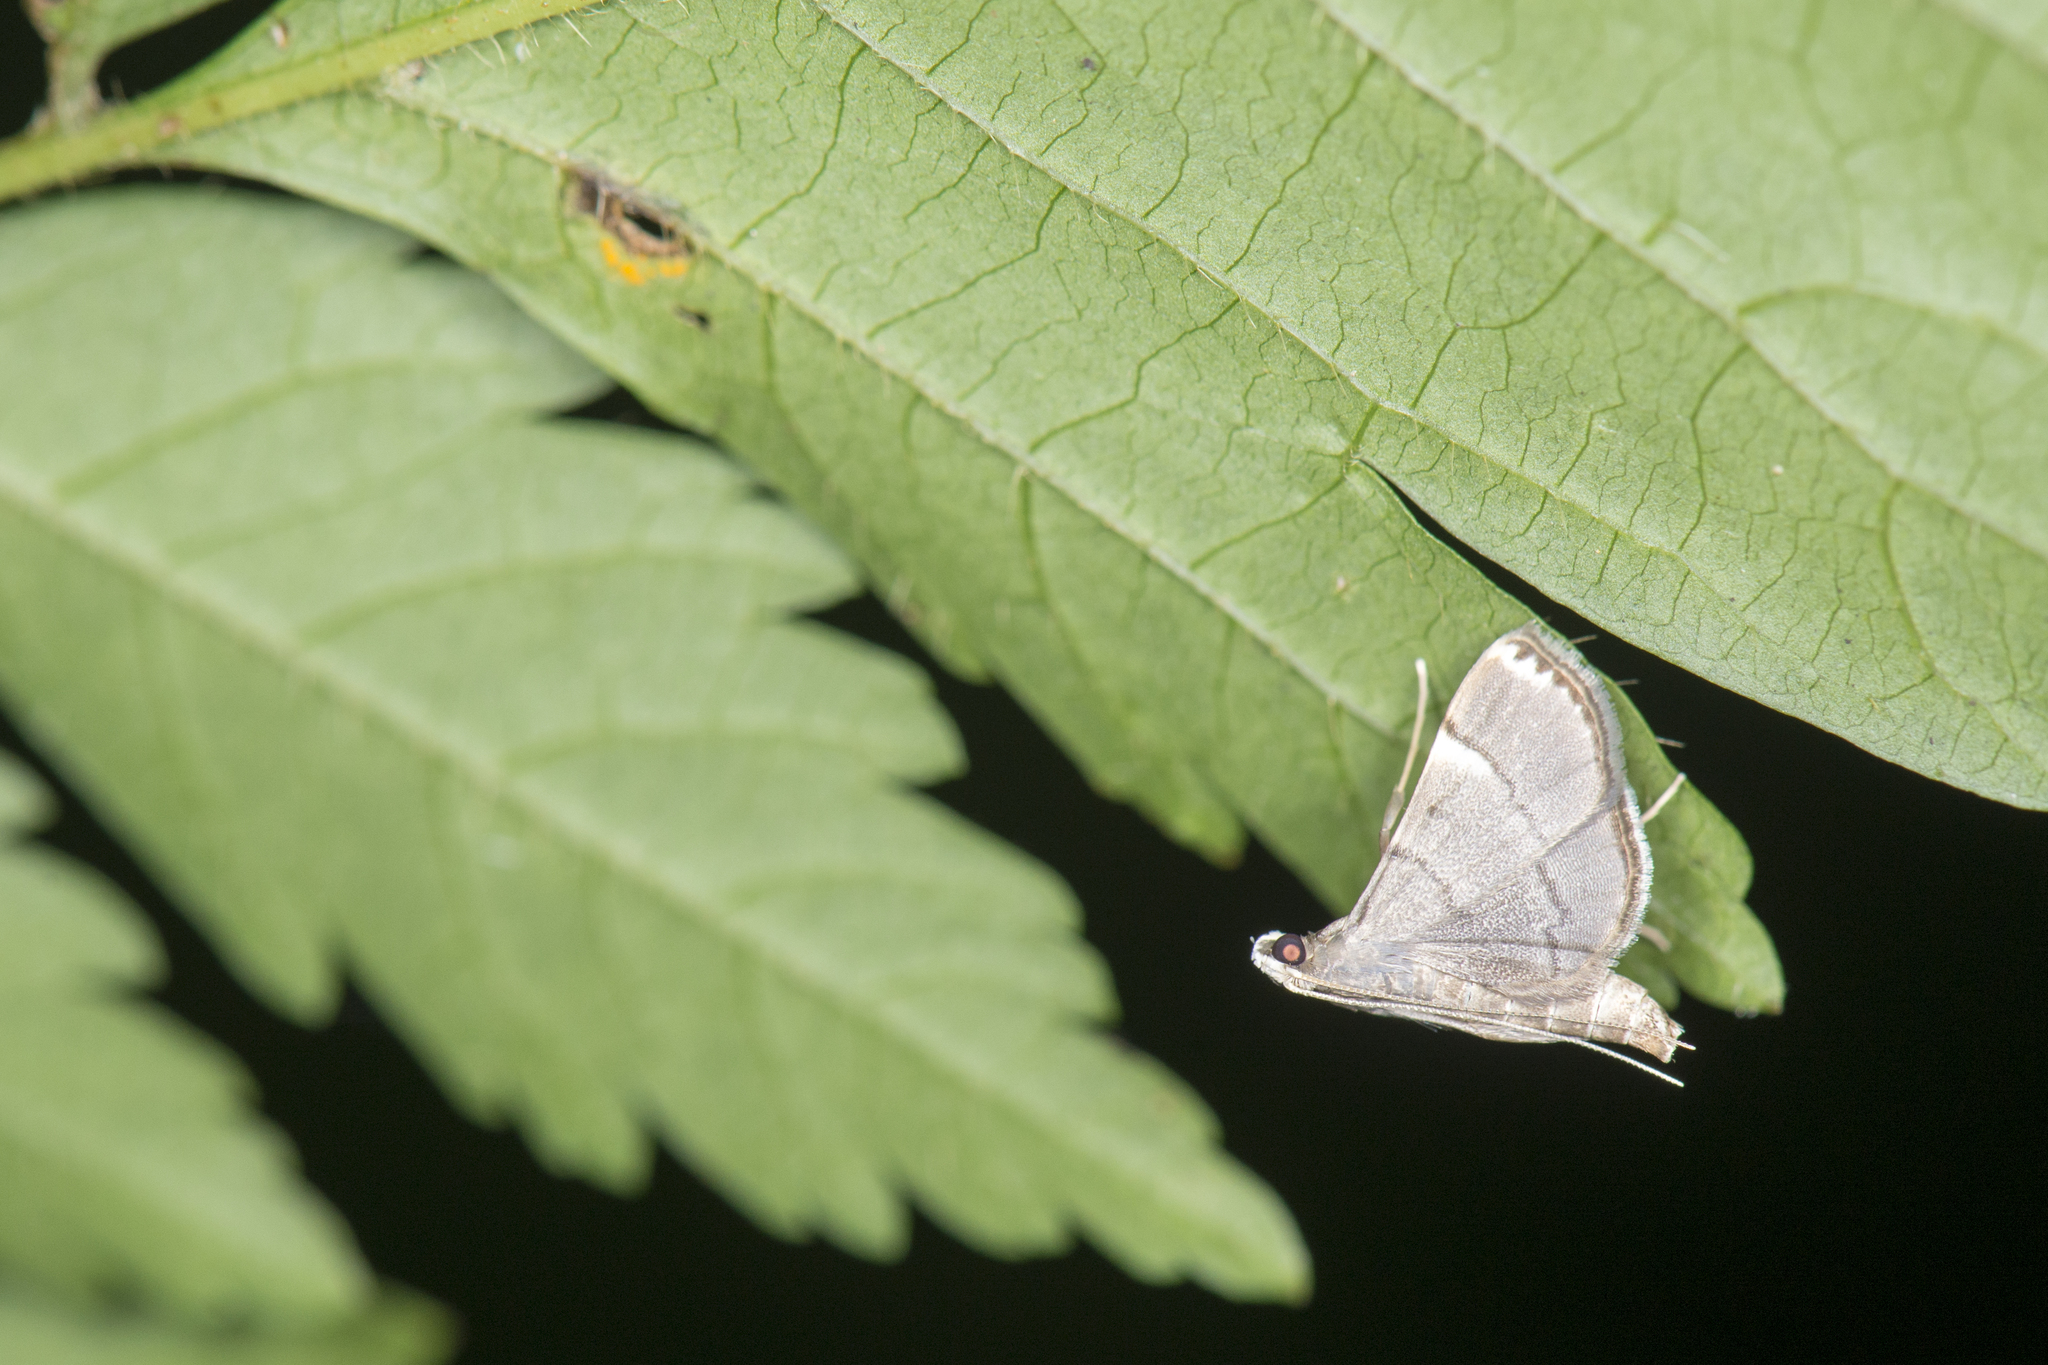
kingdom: Animalia
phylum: Arthropoda
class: Insecta
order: Lepidoptera
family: Crambidae
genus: Cangetta
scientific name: Cangetta hartoghialis
